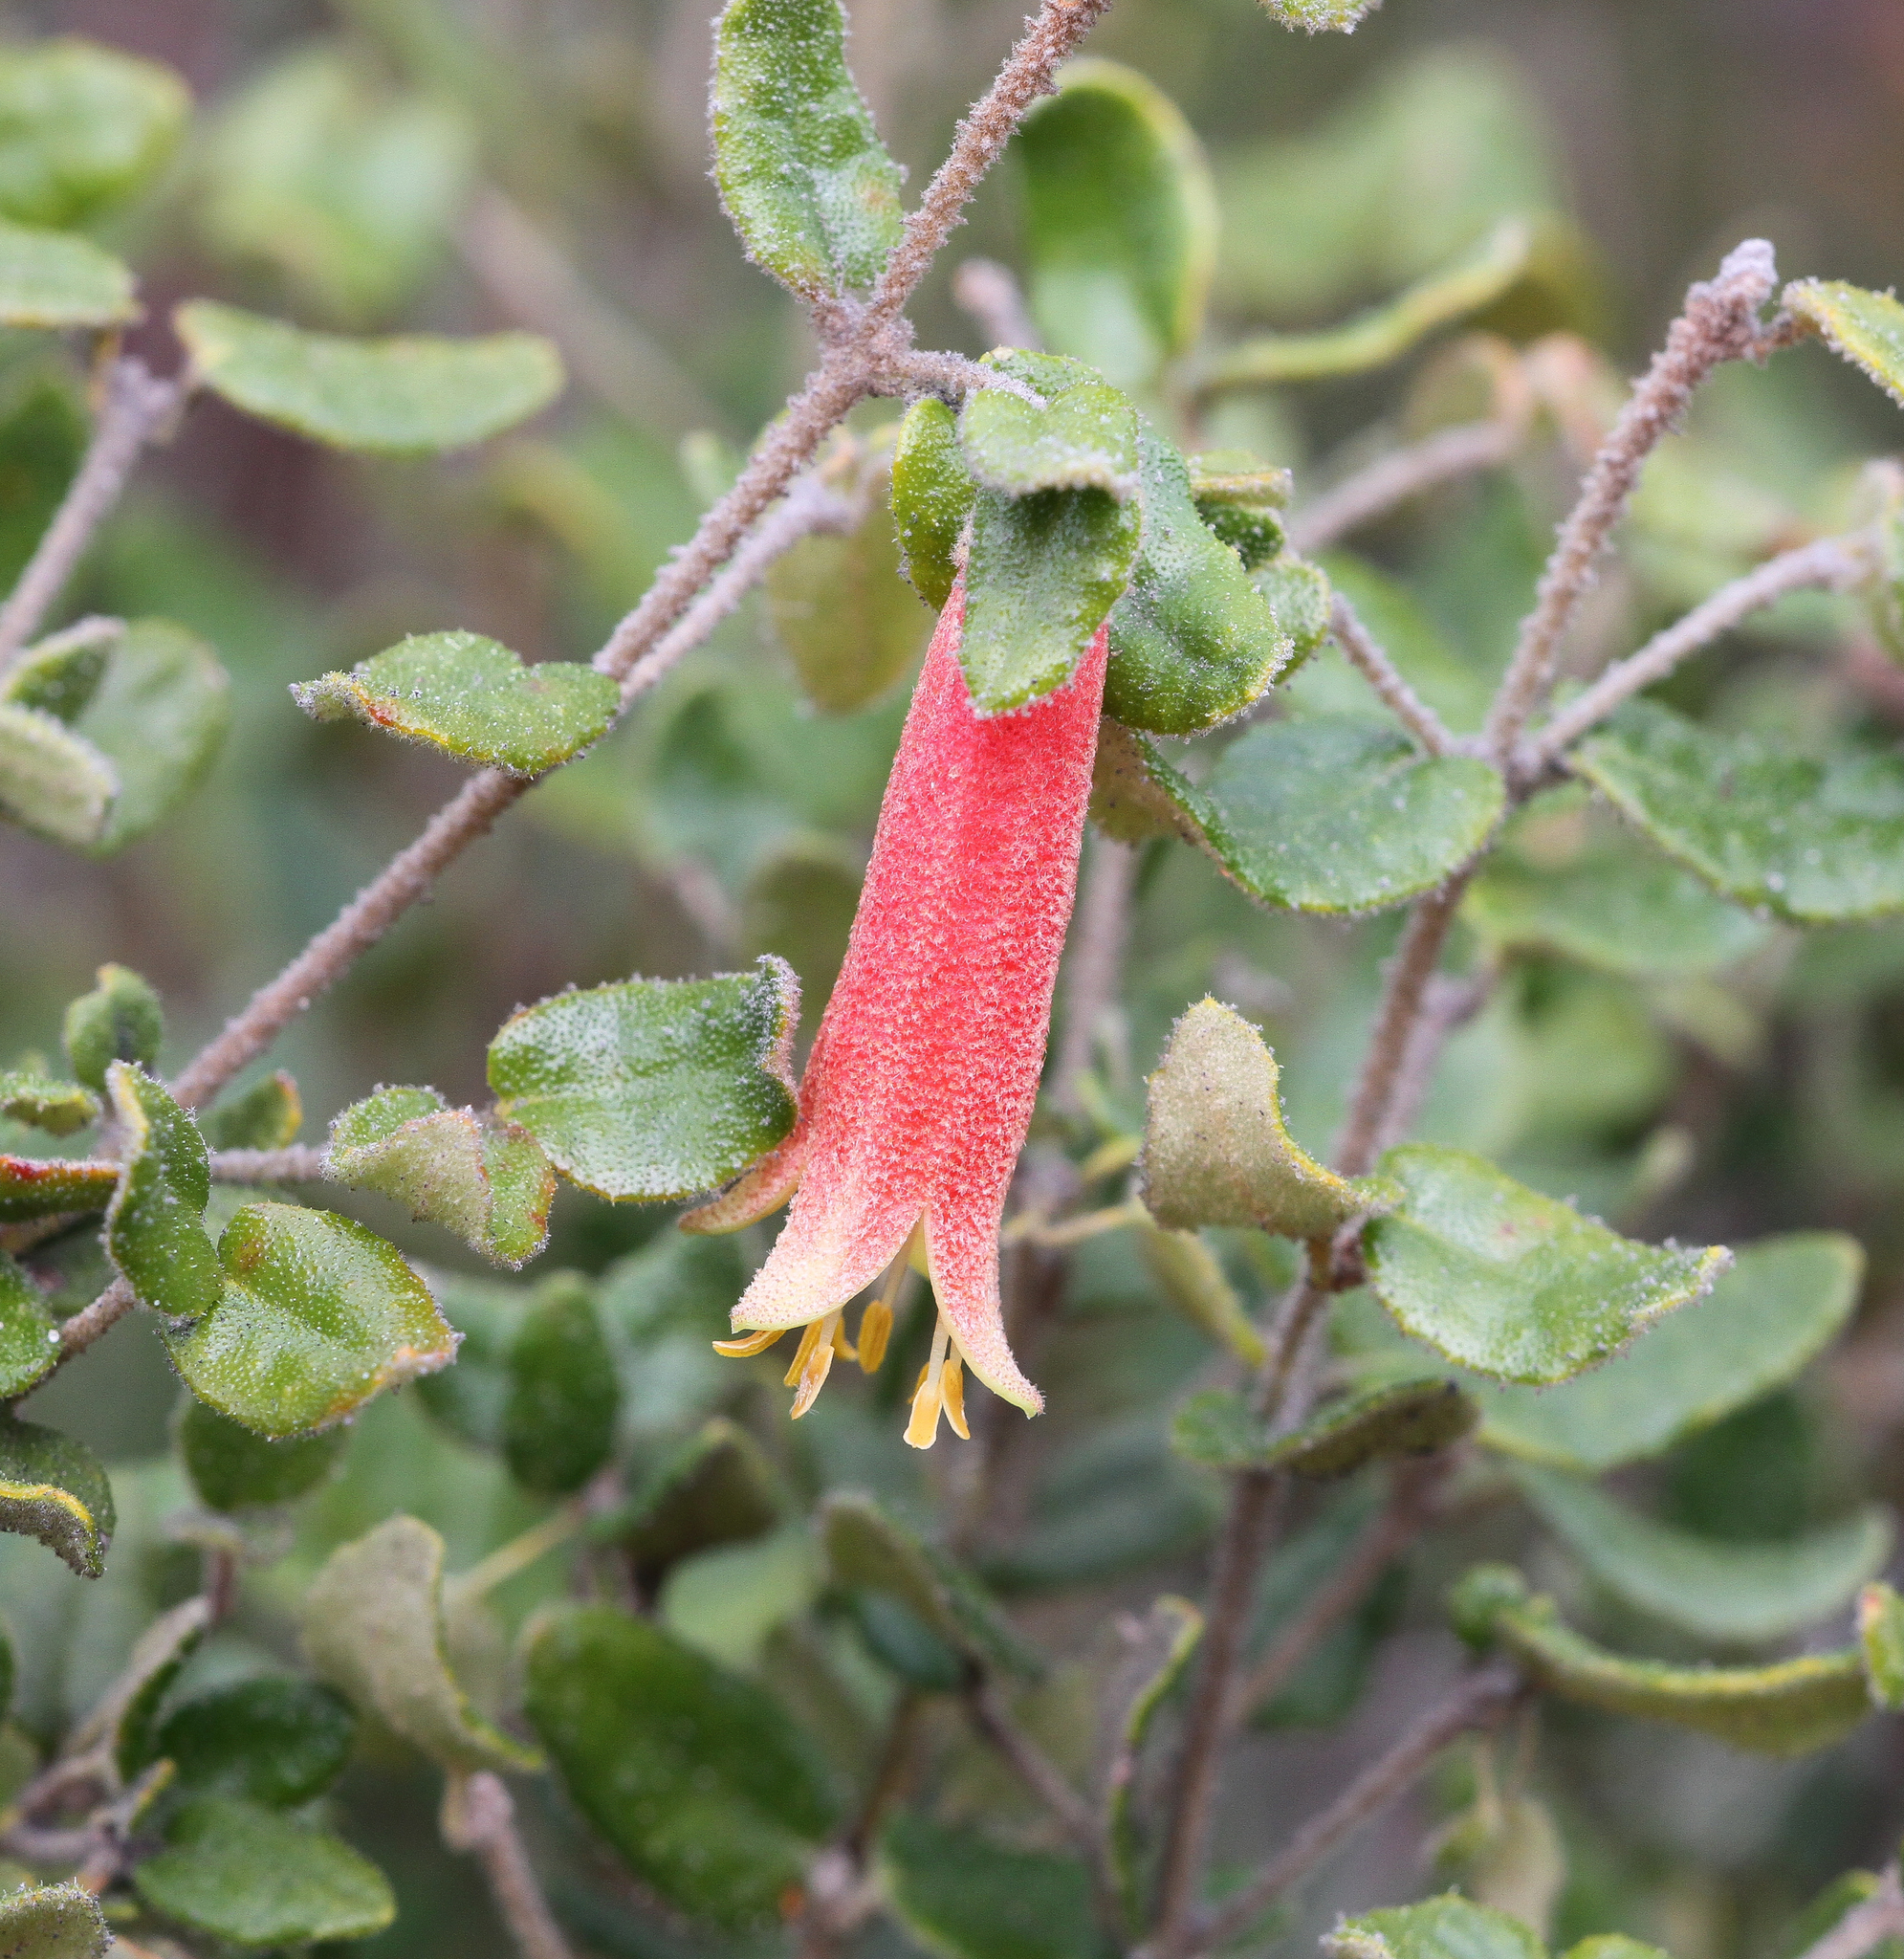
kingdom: Plantae
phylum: Tracheophyta
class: Magnoliopsida
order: Sapindales
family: Rutaceae
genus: Correa
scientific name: Correa reflexa
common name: Common correa
